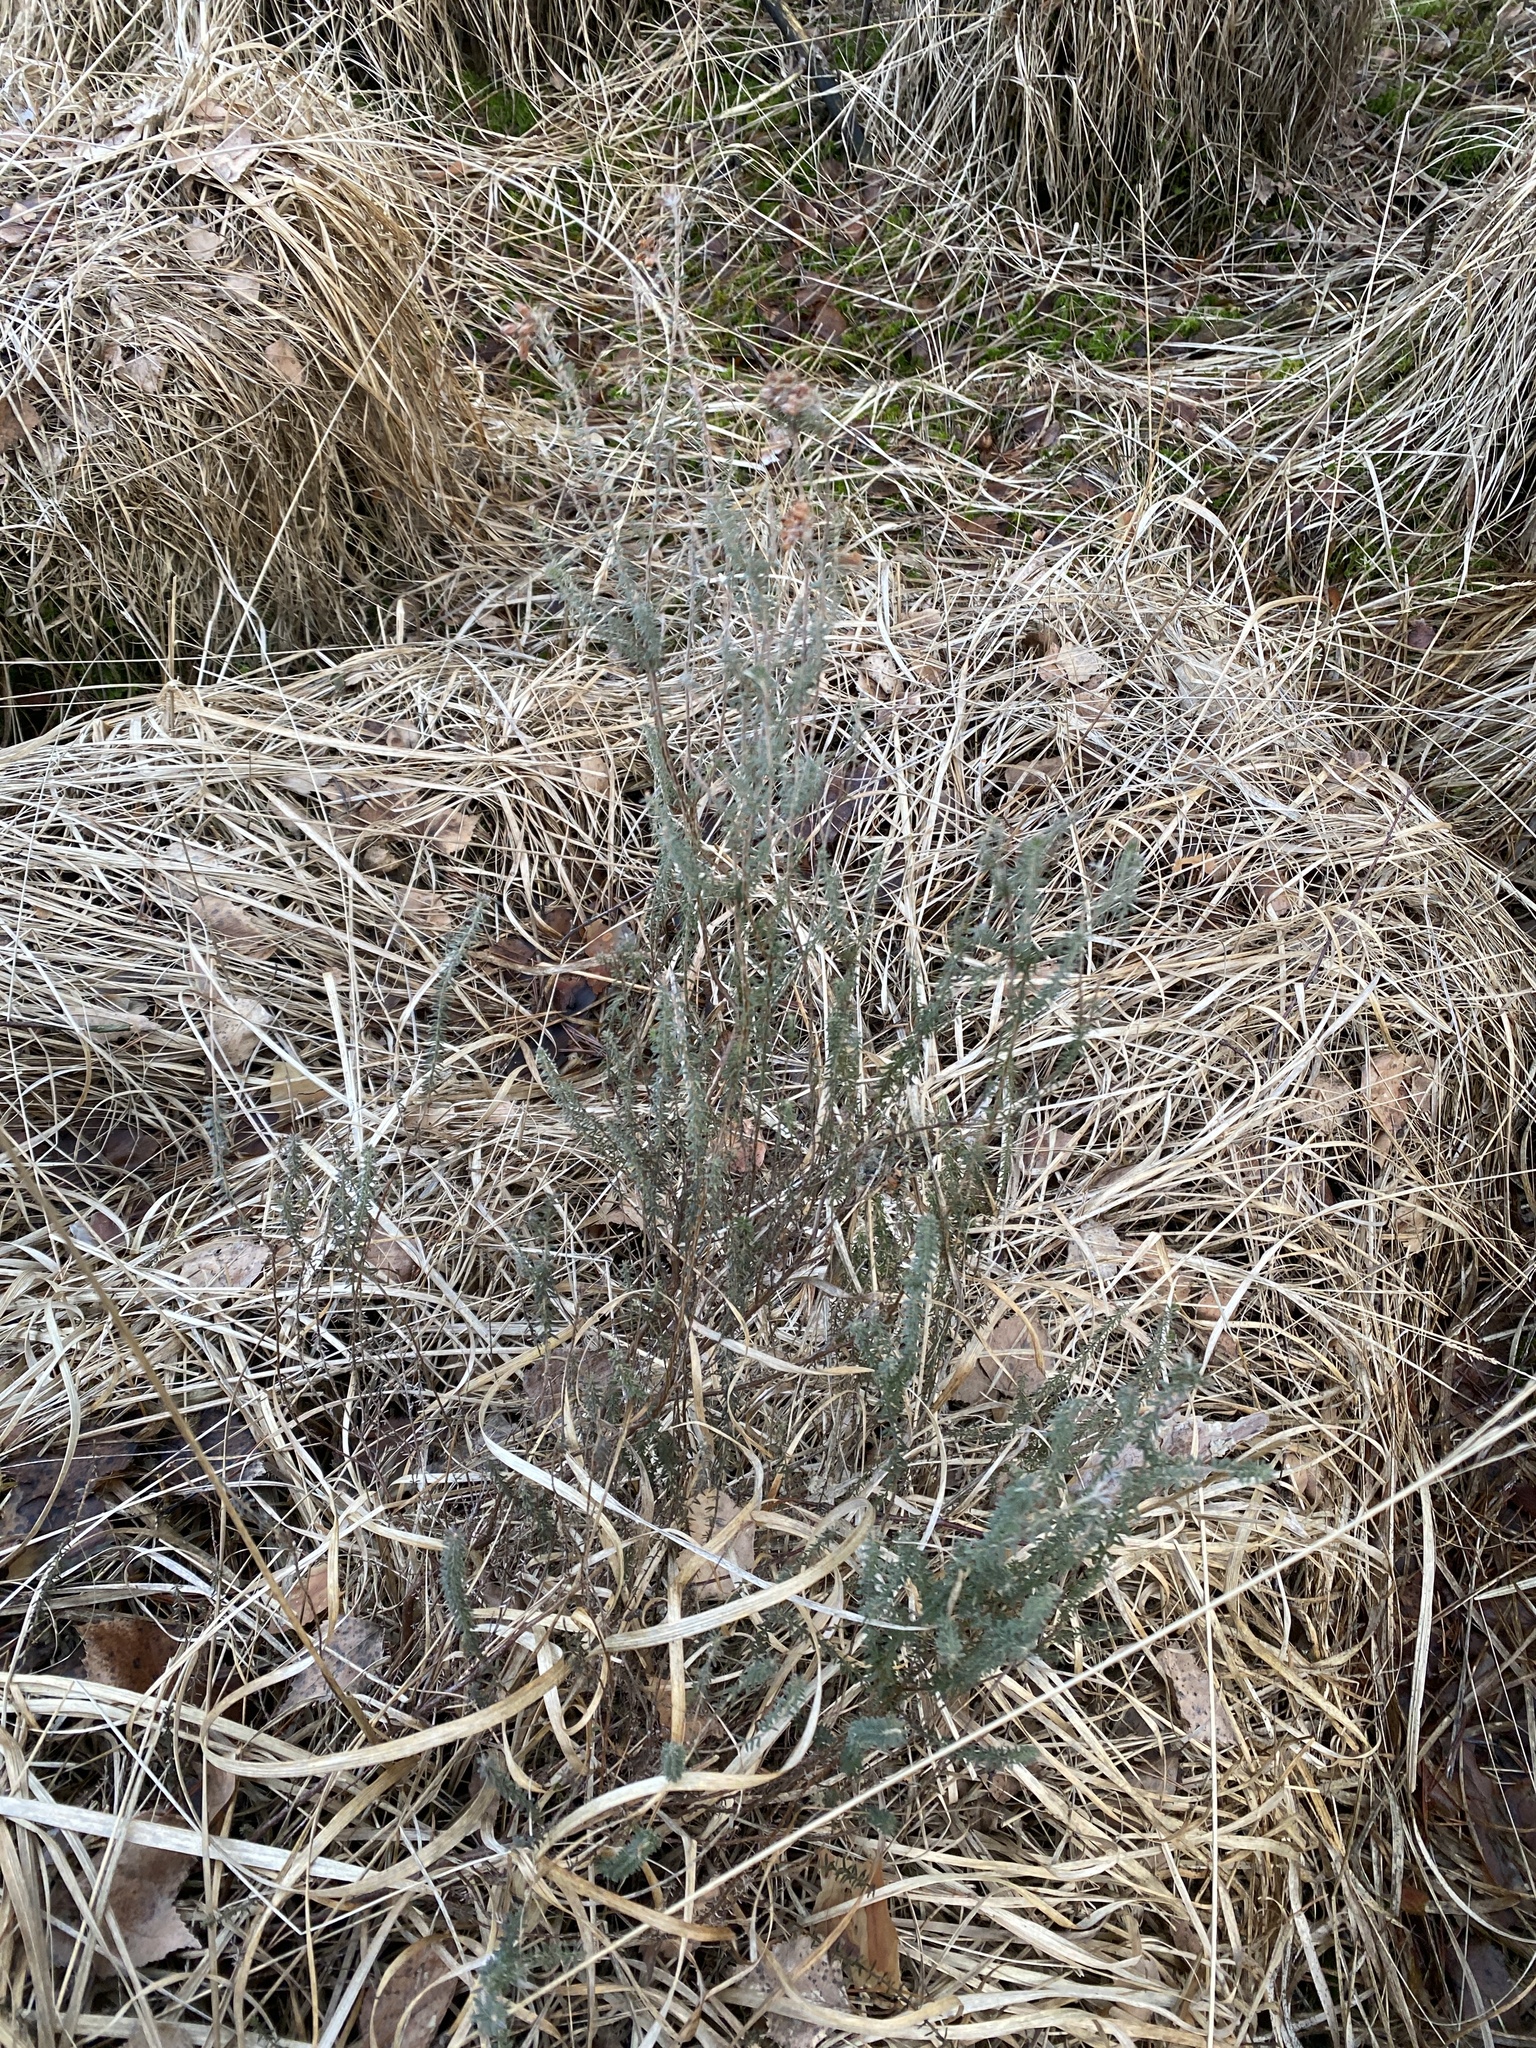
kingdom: Plantae
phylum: Tracheophyta
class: Magnoliopsida
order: Ericales
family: Ericaceae
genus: Erica
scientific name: Erica tetralix
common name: Cross-leaved heath
